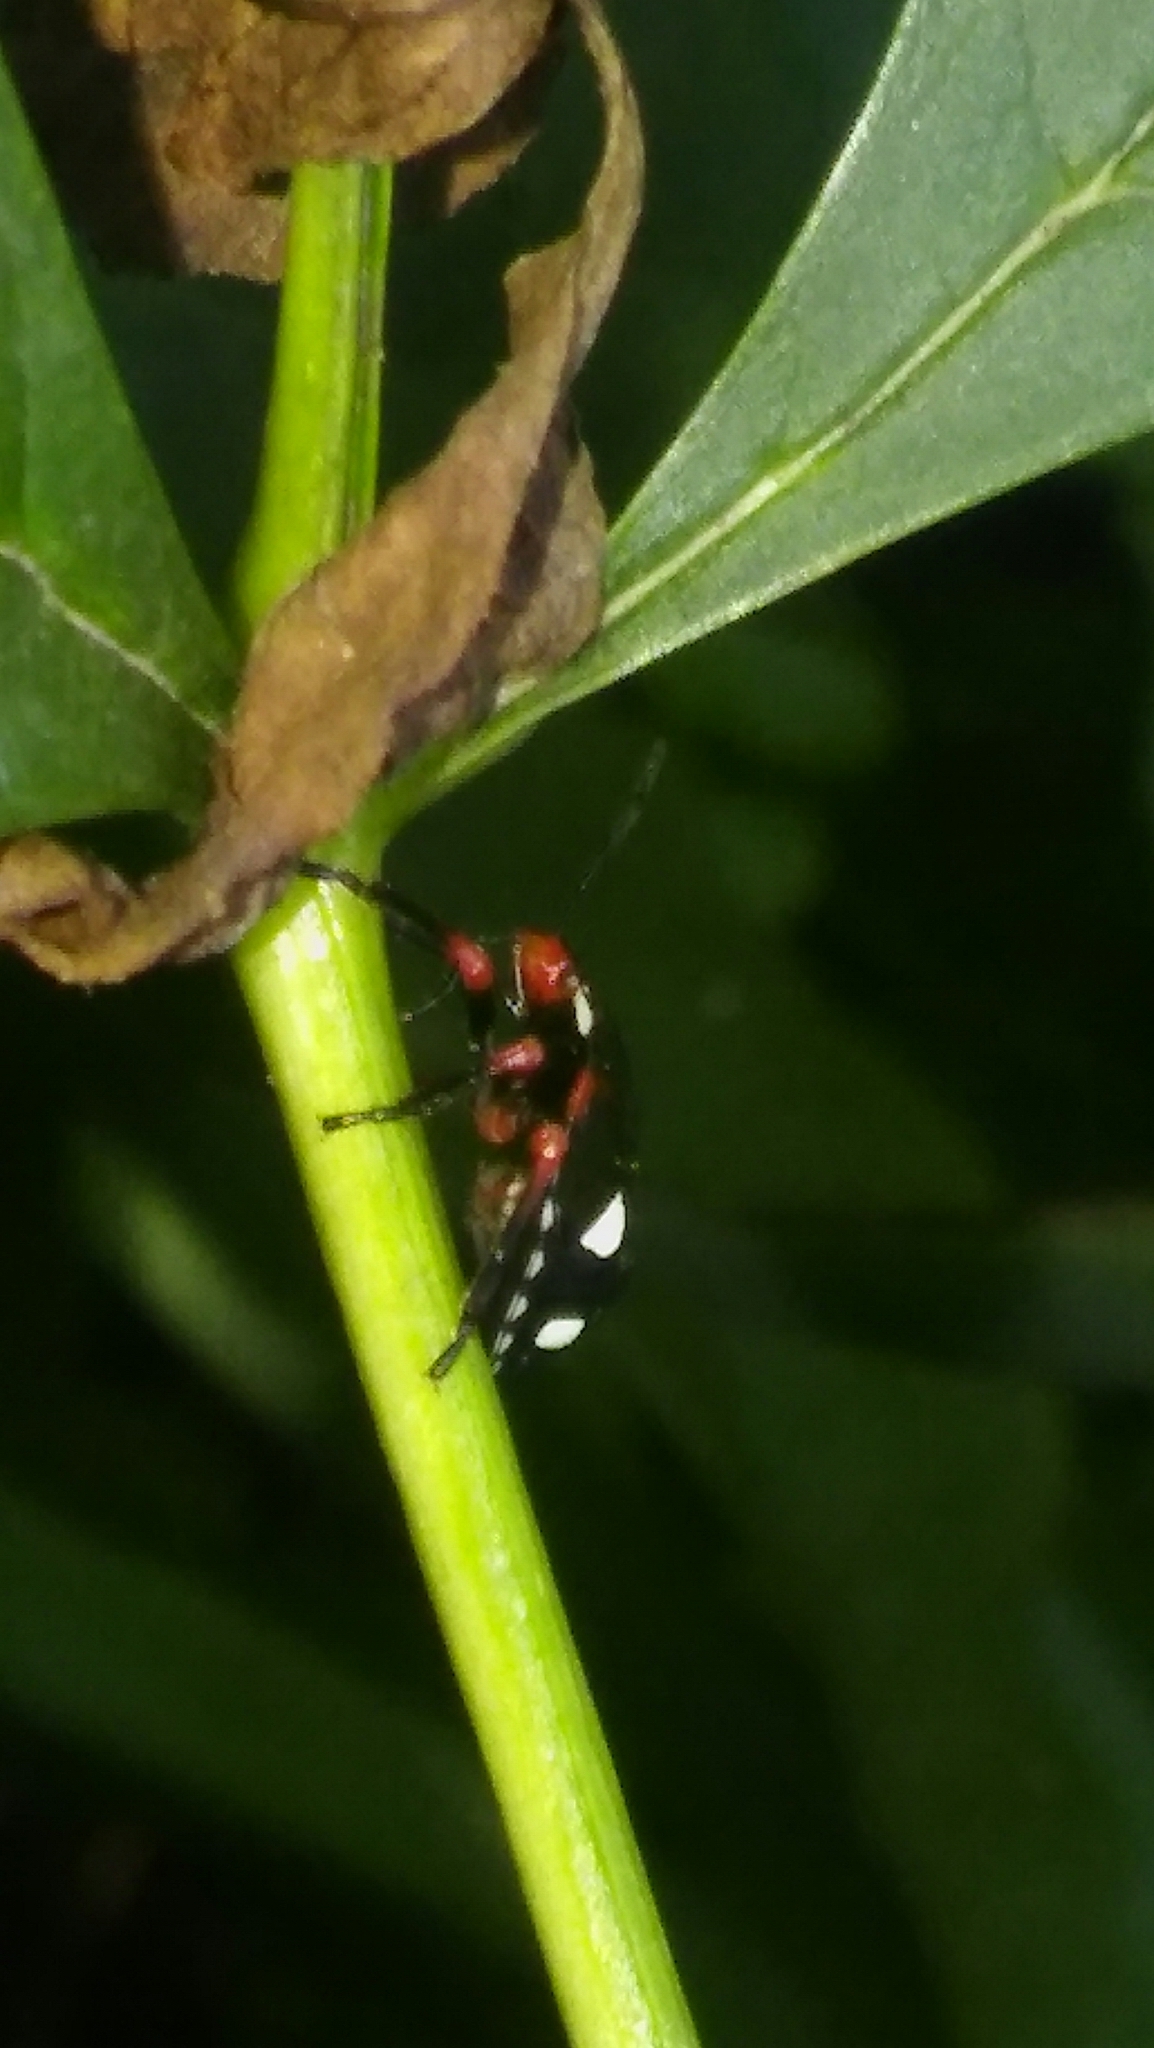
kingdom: Animalia
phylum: Arthropoda
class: Insecta
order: Hemiptera
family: Pentatomidae
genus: Chinavia
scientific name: Chinavia erythrocnemis
